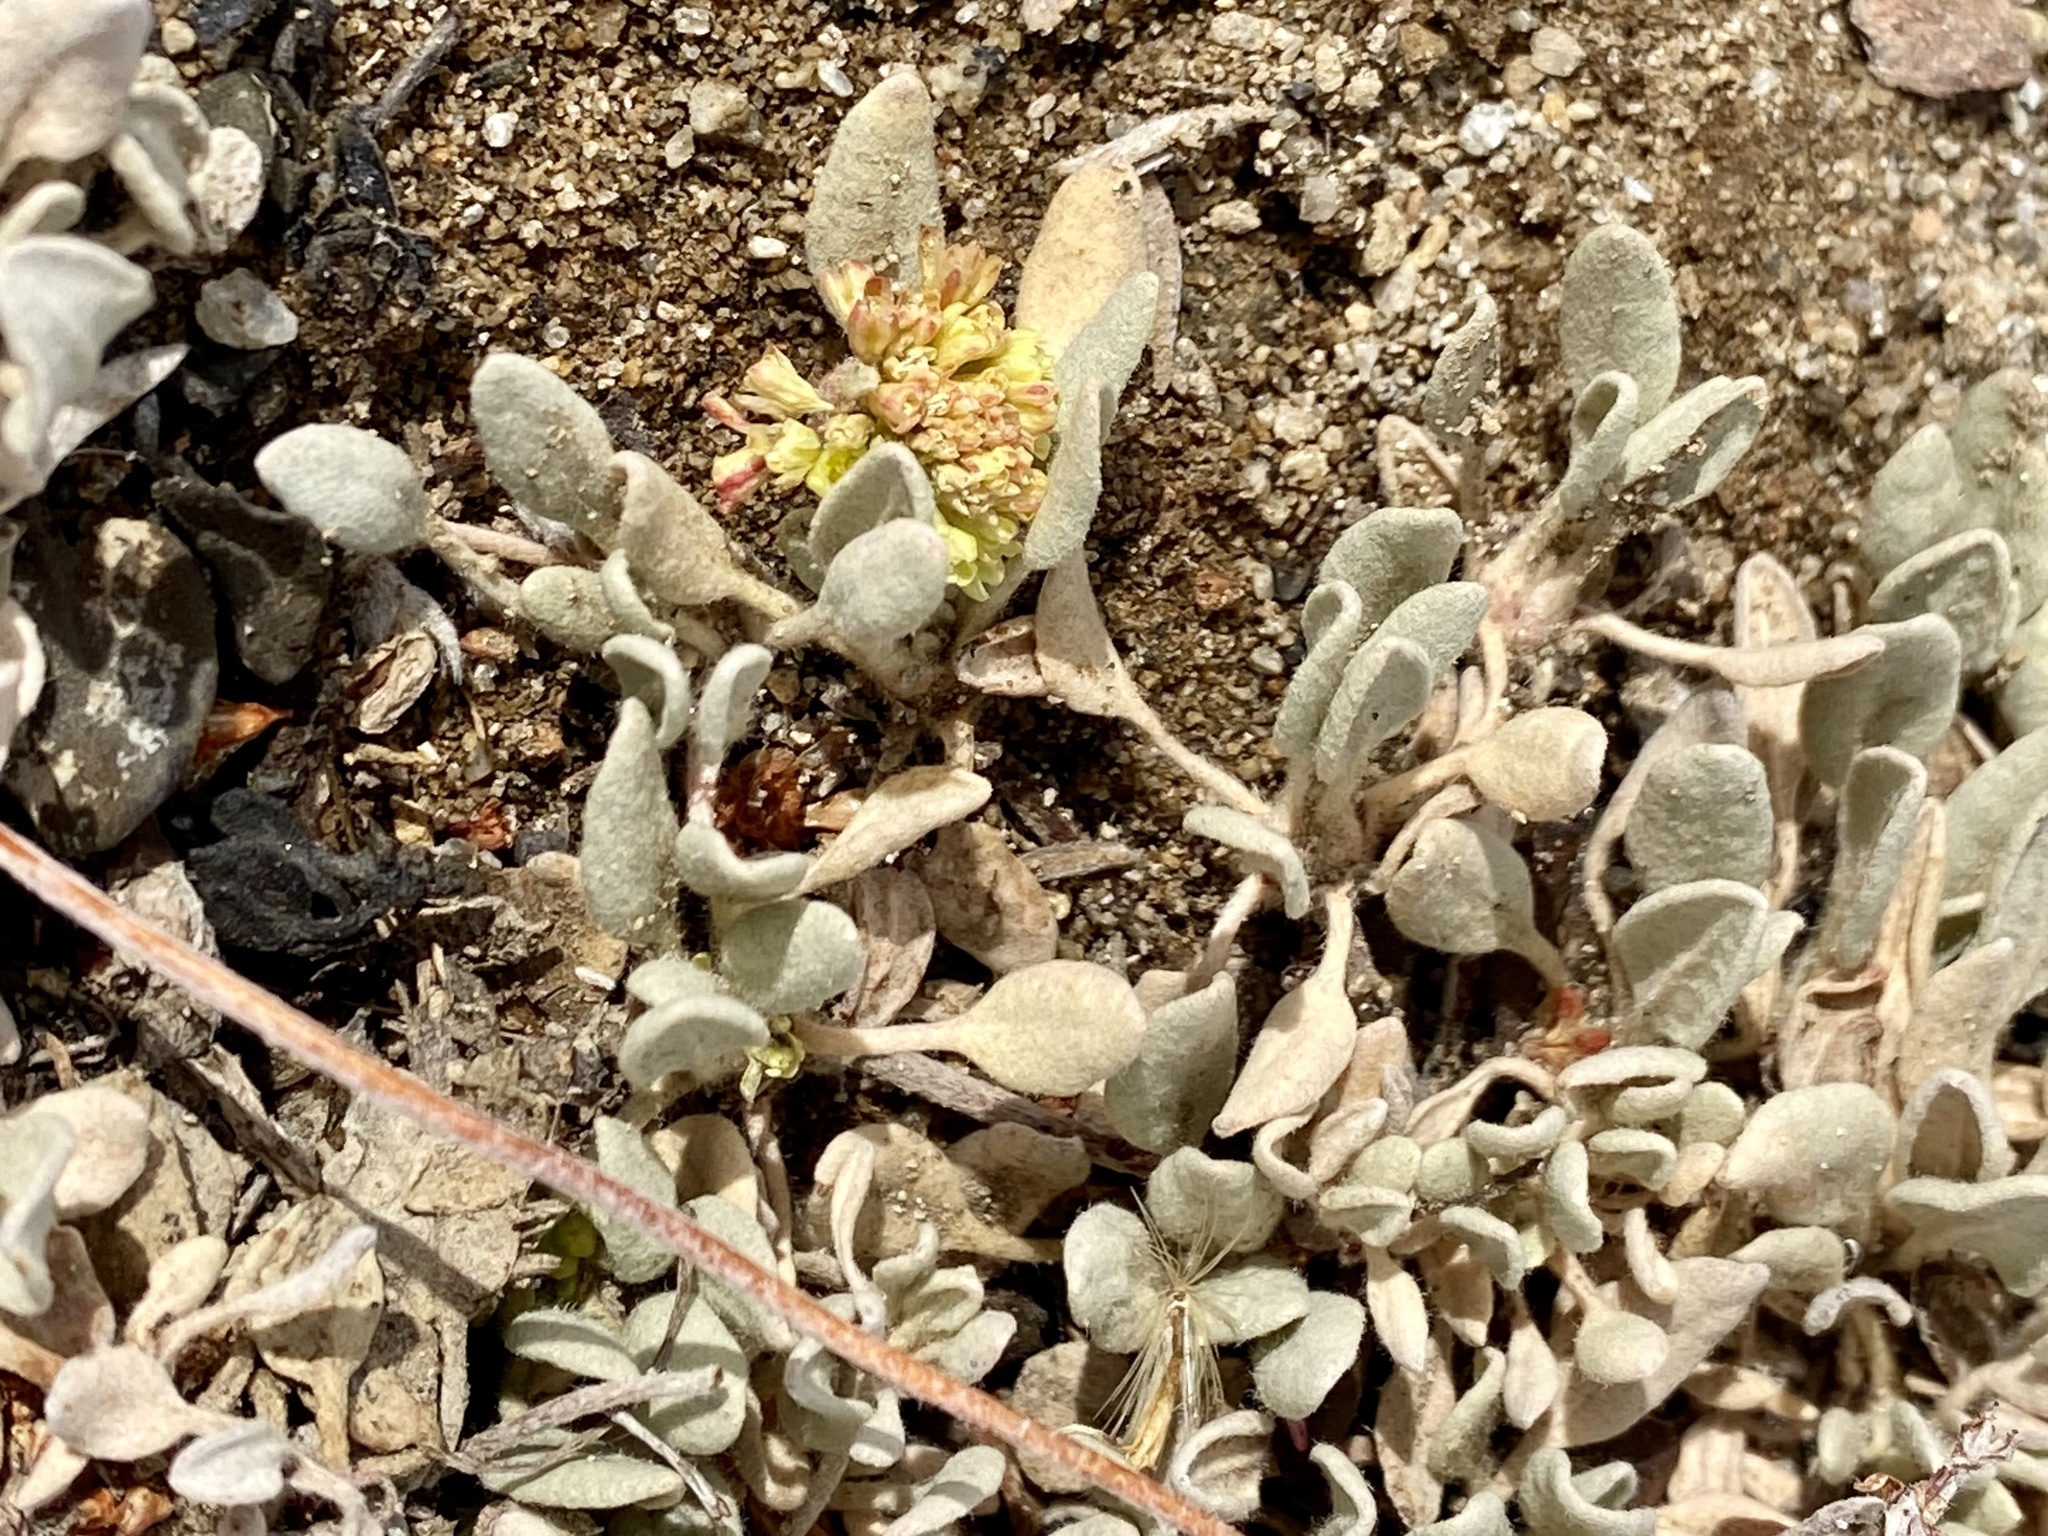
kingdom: Plantae
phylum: Tracheophyta
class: Magnoliopsida
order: Caryophyllales
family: Polygonaceae
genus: Eriogonum
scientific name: Eriogonum incanum
